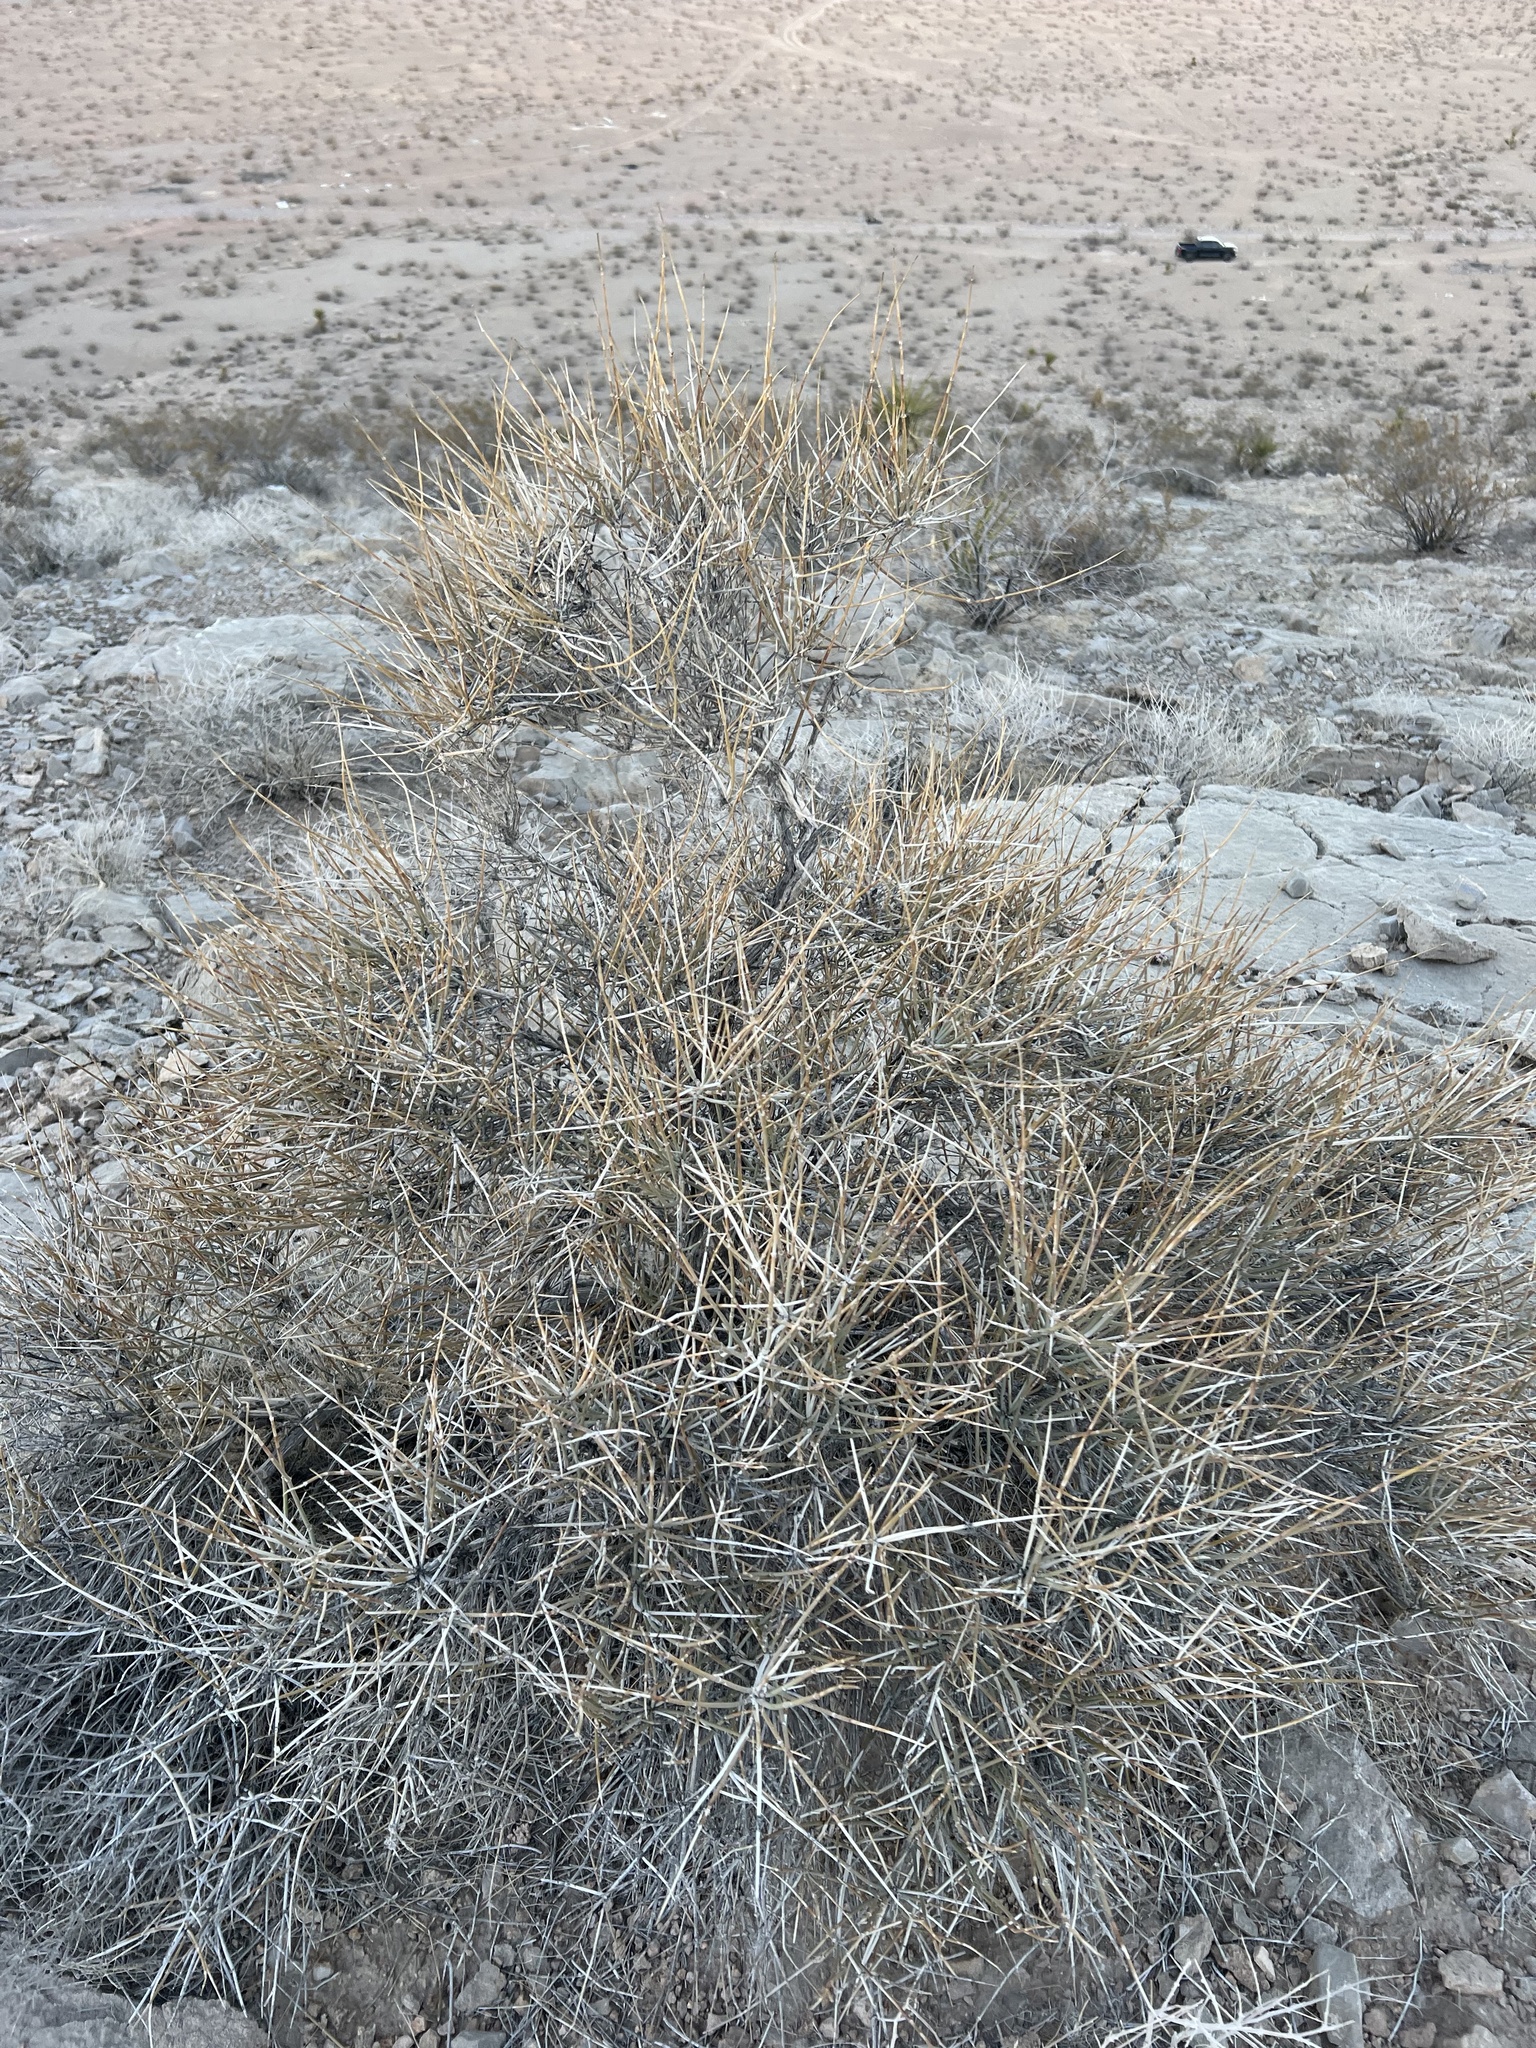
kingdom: Plantae
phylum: Tracheophyta
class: Gnetopsida
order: Ephedrales
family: Ephedraceae
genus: Ephedra
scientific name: Ephedra nevadensis
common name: Gray ephedra
